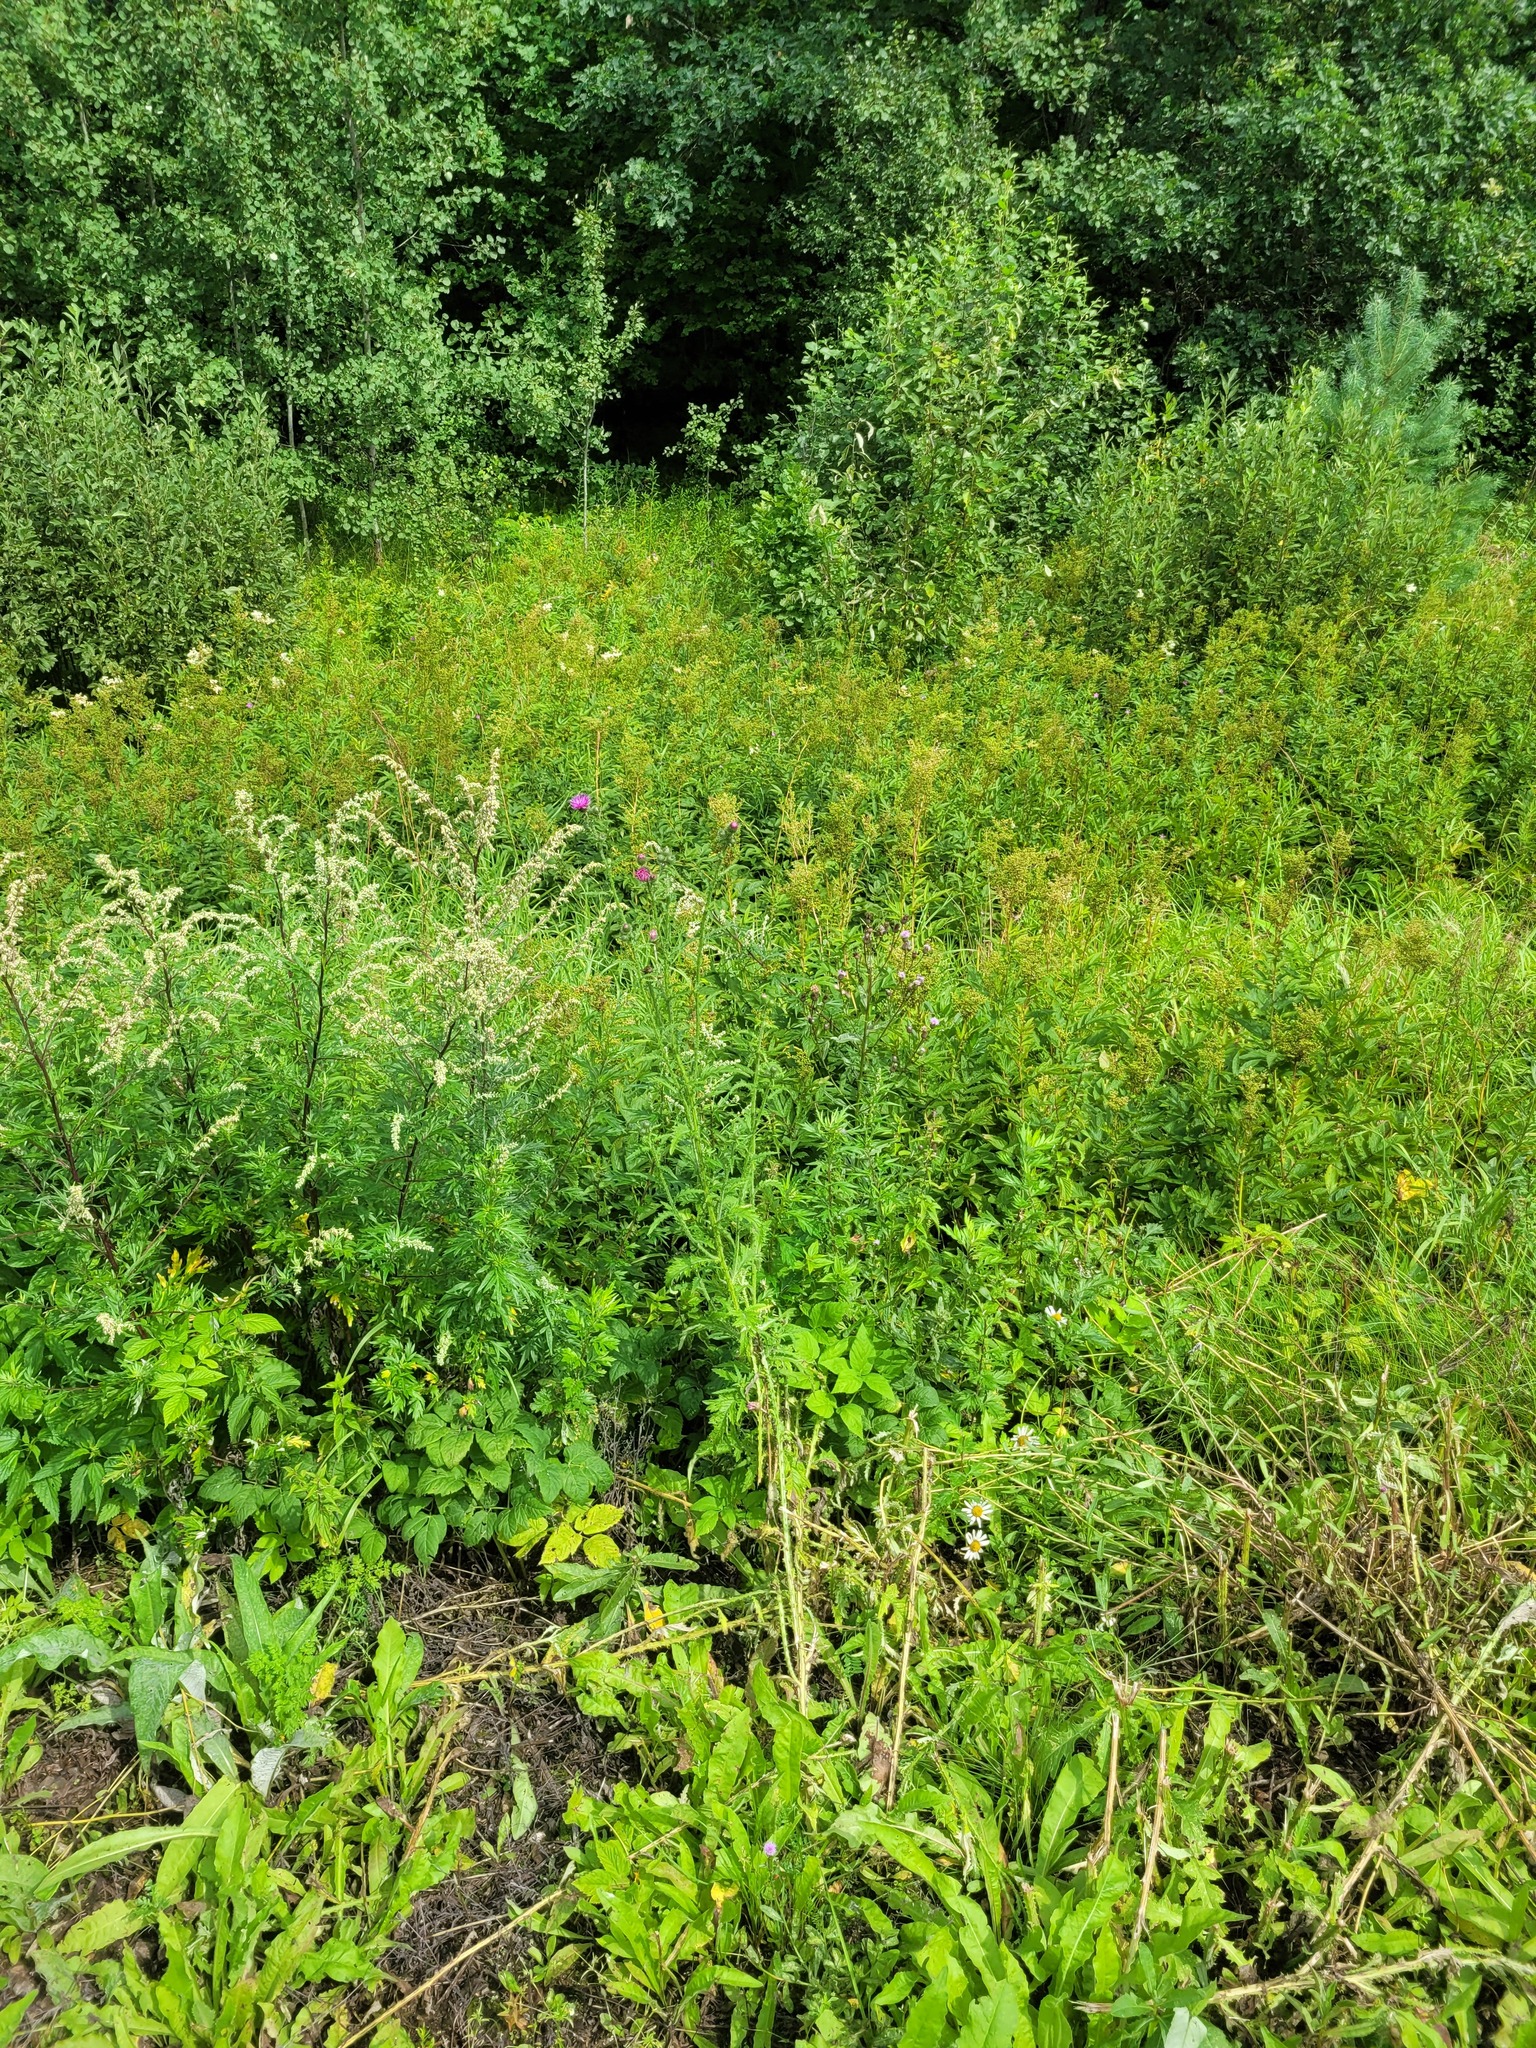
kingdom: Plantae
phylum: Tracheophyta
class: Magnoliopsida
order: Asterales
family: Asteraceae
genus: Carduus
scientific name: Carduus crispus
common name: Welted thistle
